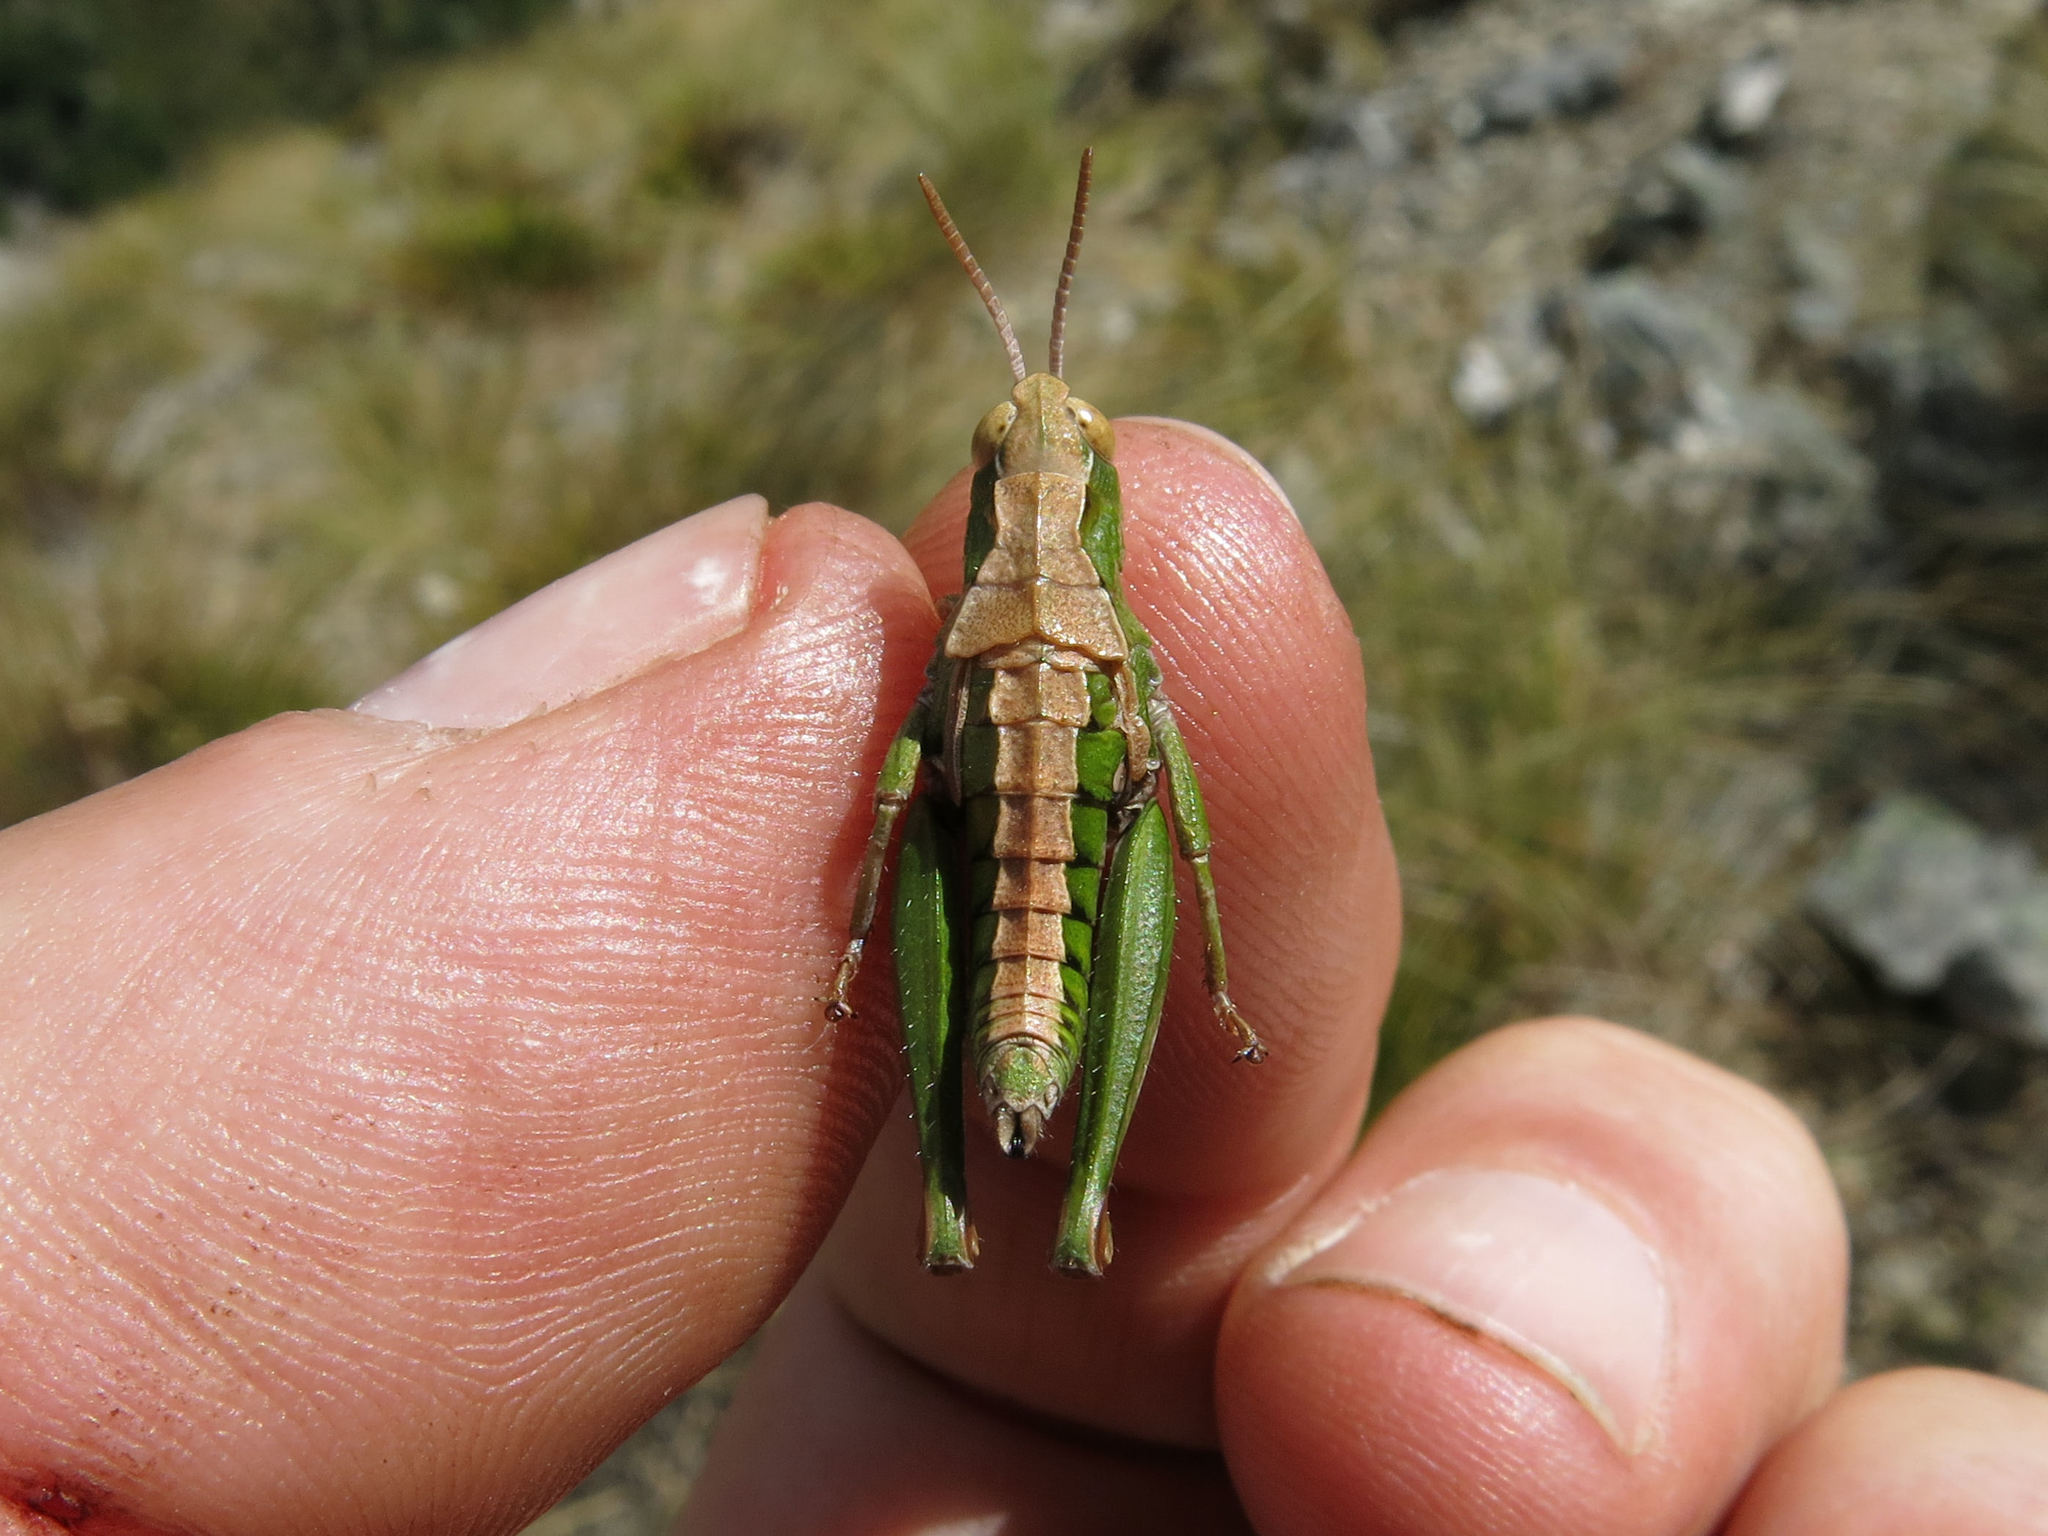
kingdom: Animalia
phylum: Arthropoda
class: Insecta
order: Orthoptera
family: Acrididae
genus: Sigaus
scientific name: Sigaus campestris
